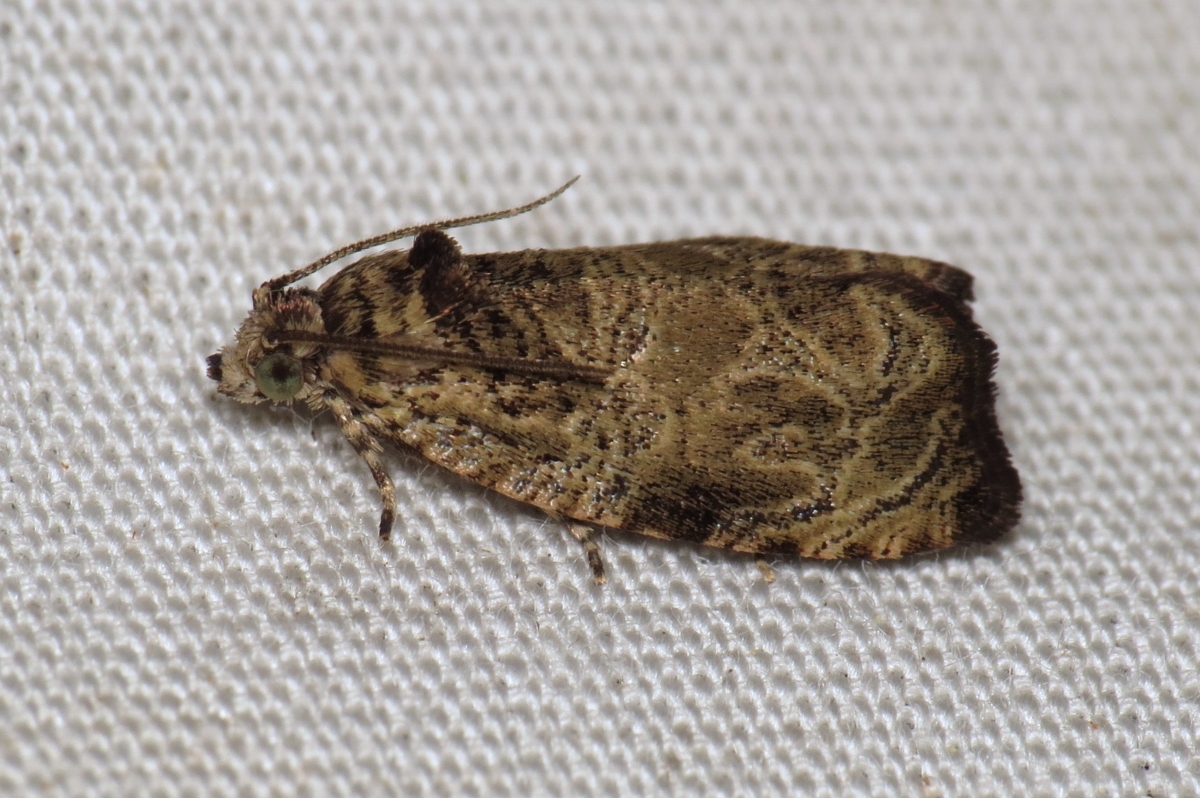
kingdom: Animalia
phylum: Arthropoda
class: Insecta
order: Lepidoptera
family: Tortricidae
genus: Olethreutes
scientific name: Olethreutes furfuranum
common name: Woolly-backed moth
